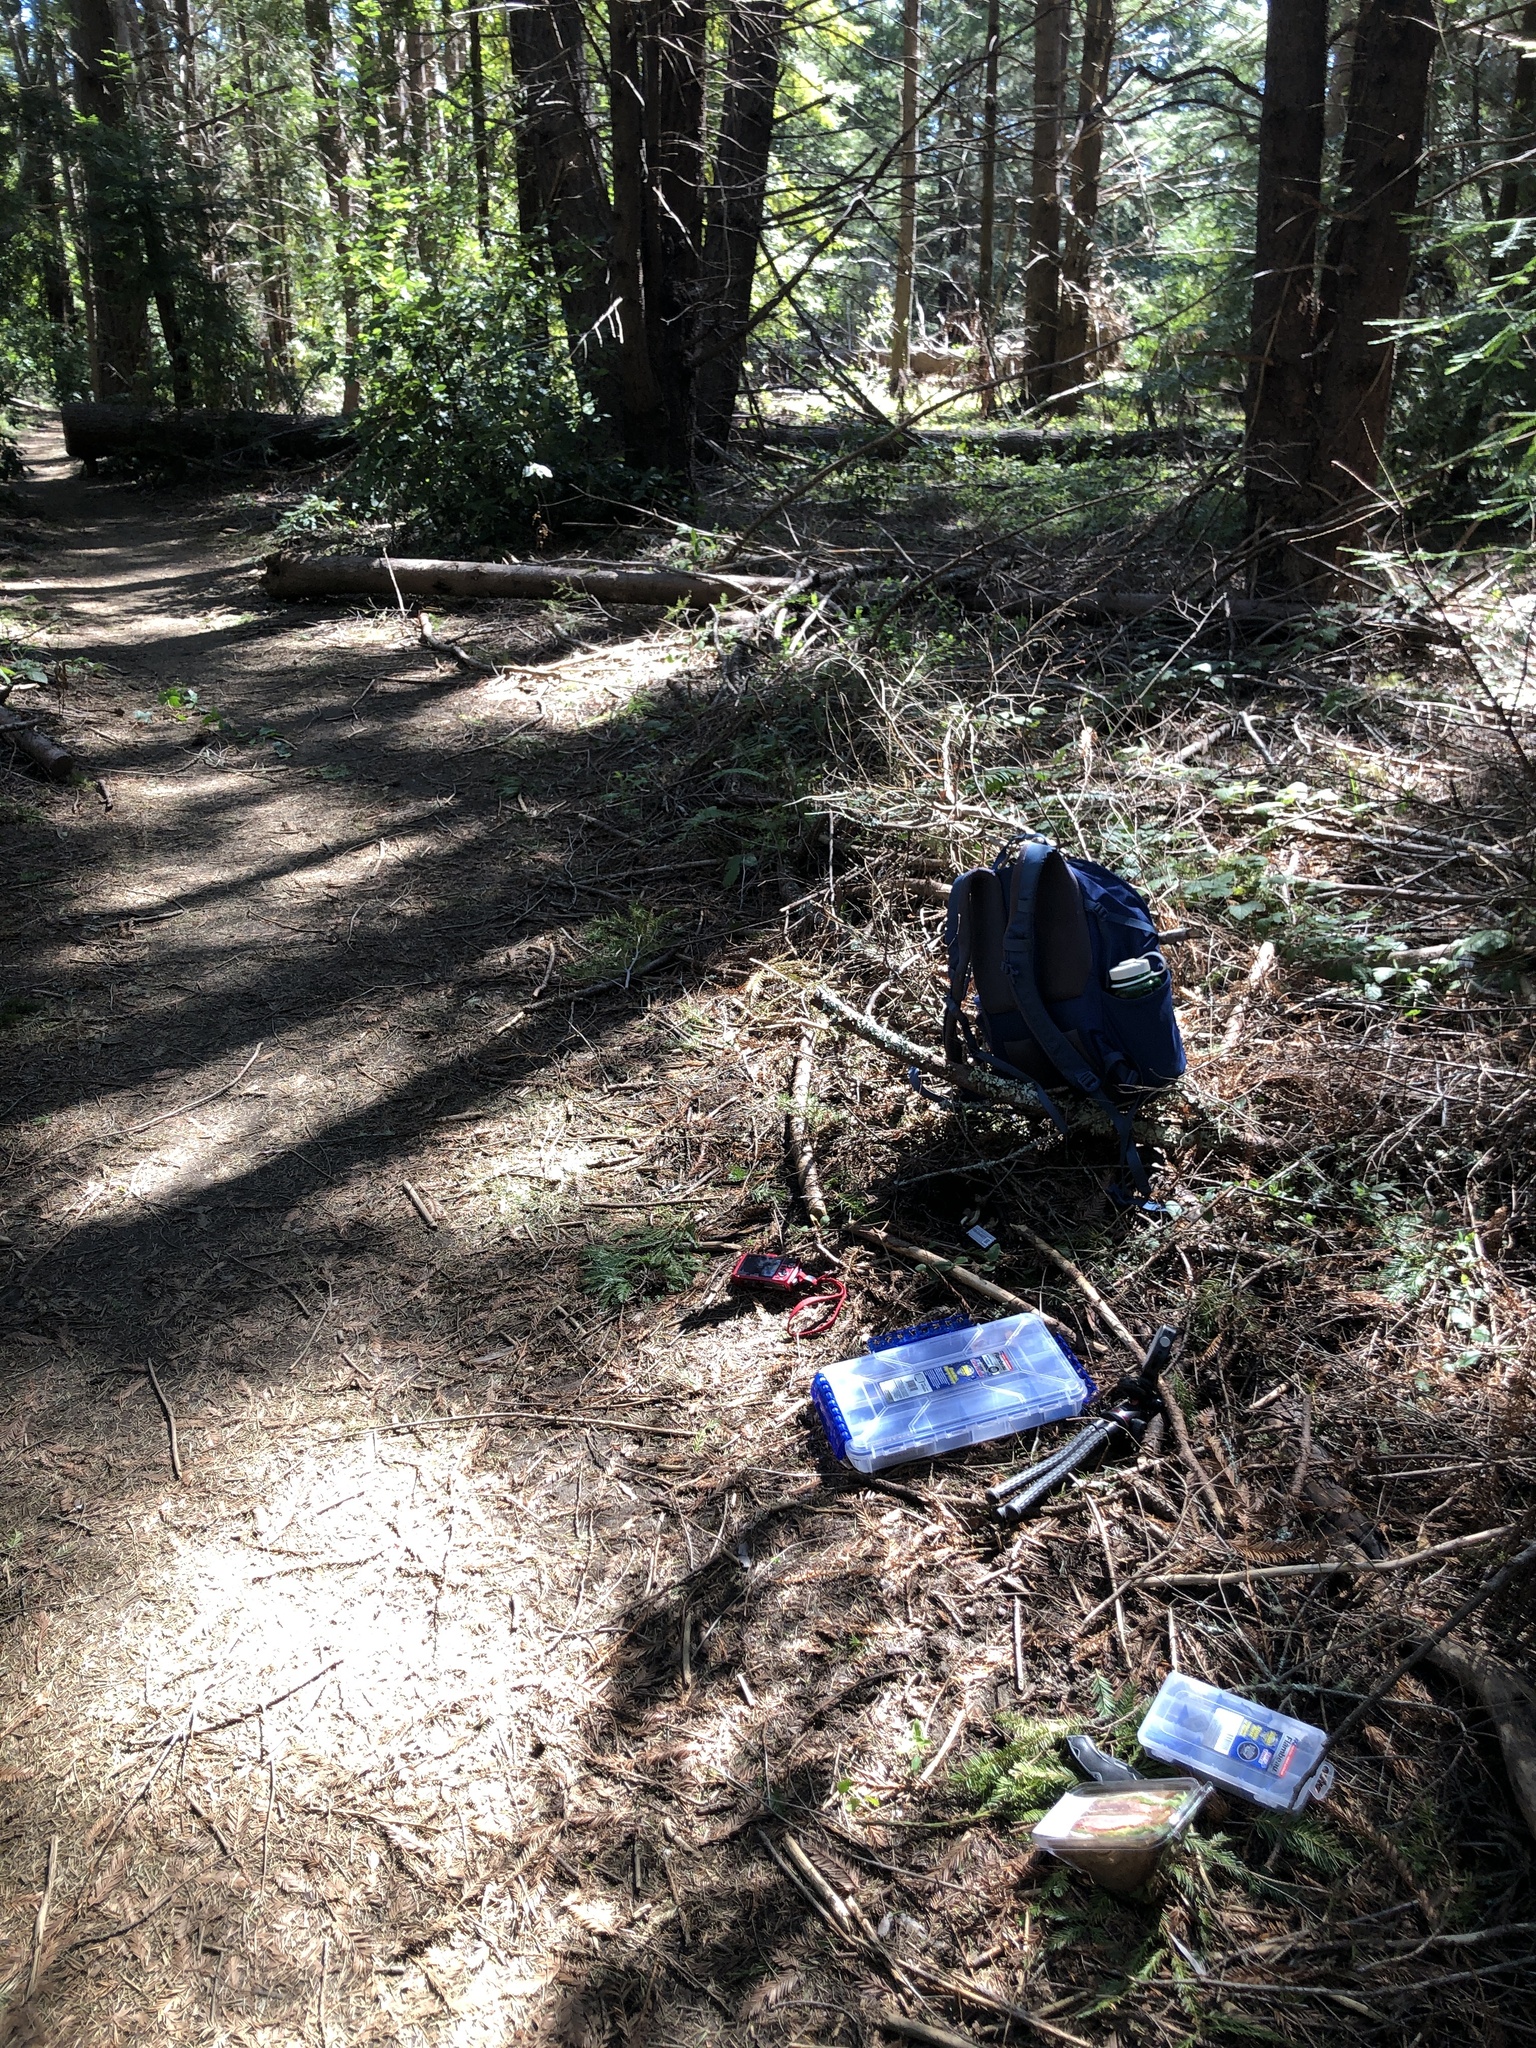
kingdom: Fungi
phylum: Ascomycota
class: Pezizomycetes
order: Pezizales
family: Helvellaceae
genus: Helvella
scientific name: Helvella compressa
